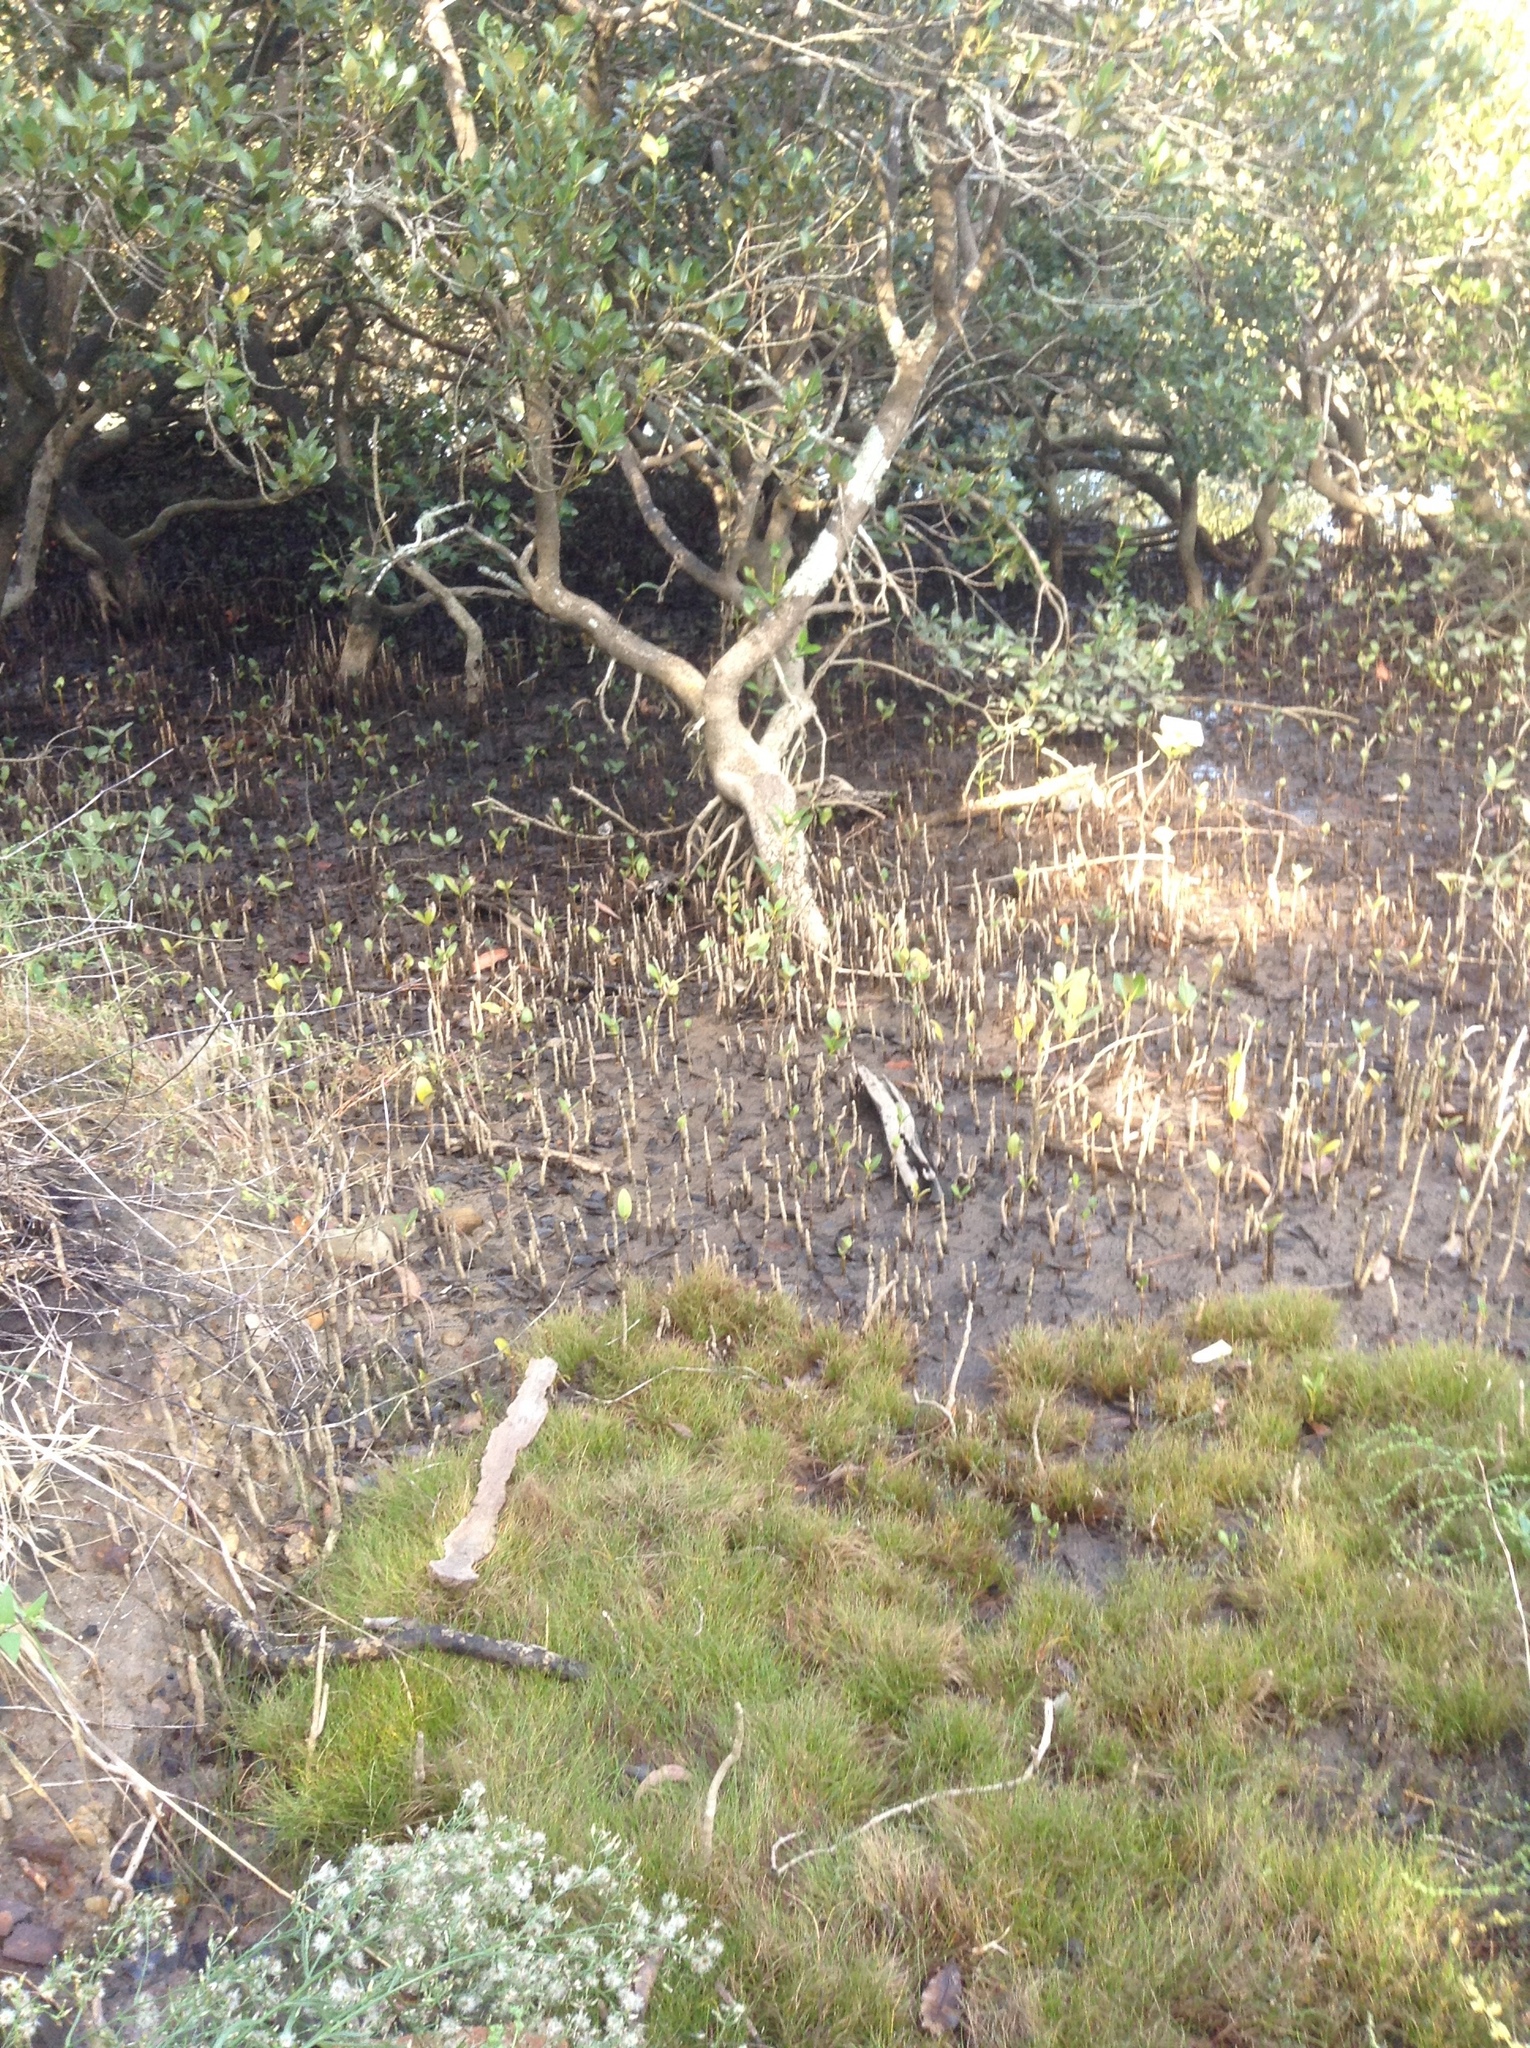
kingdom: Plantae
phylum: Tracheophyta
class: Magnoliopsida
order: Lamiales
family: Acanthaceae
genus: Avicennia
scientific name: Avicennia marina
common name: Gray mangrove
